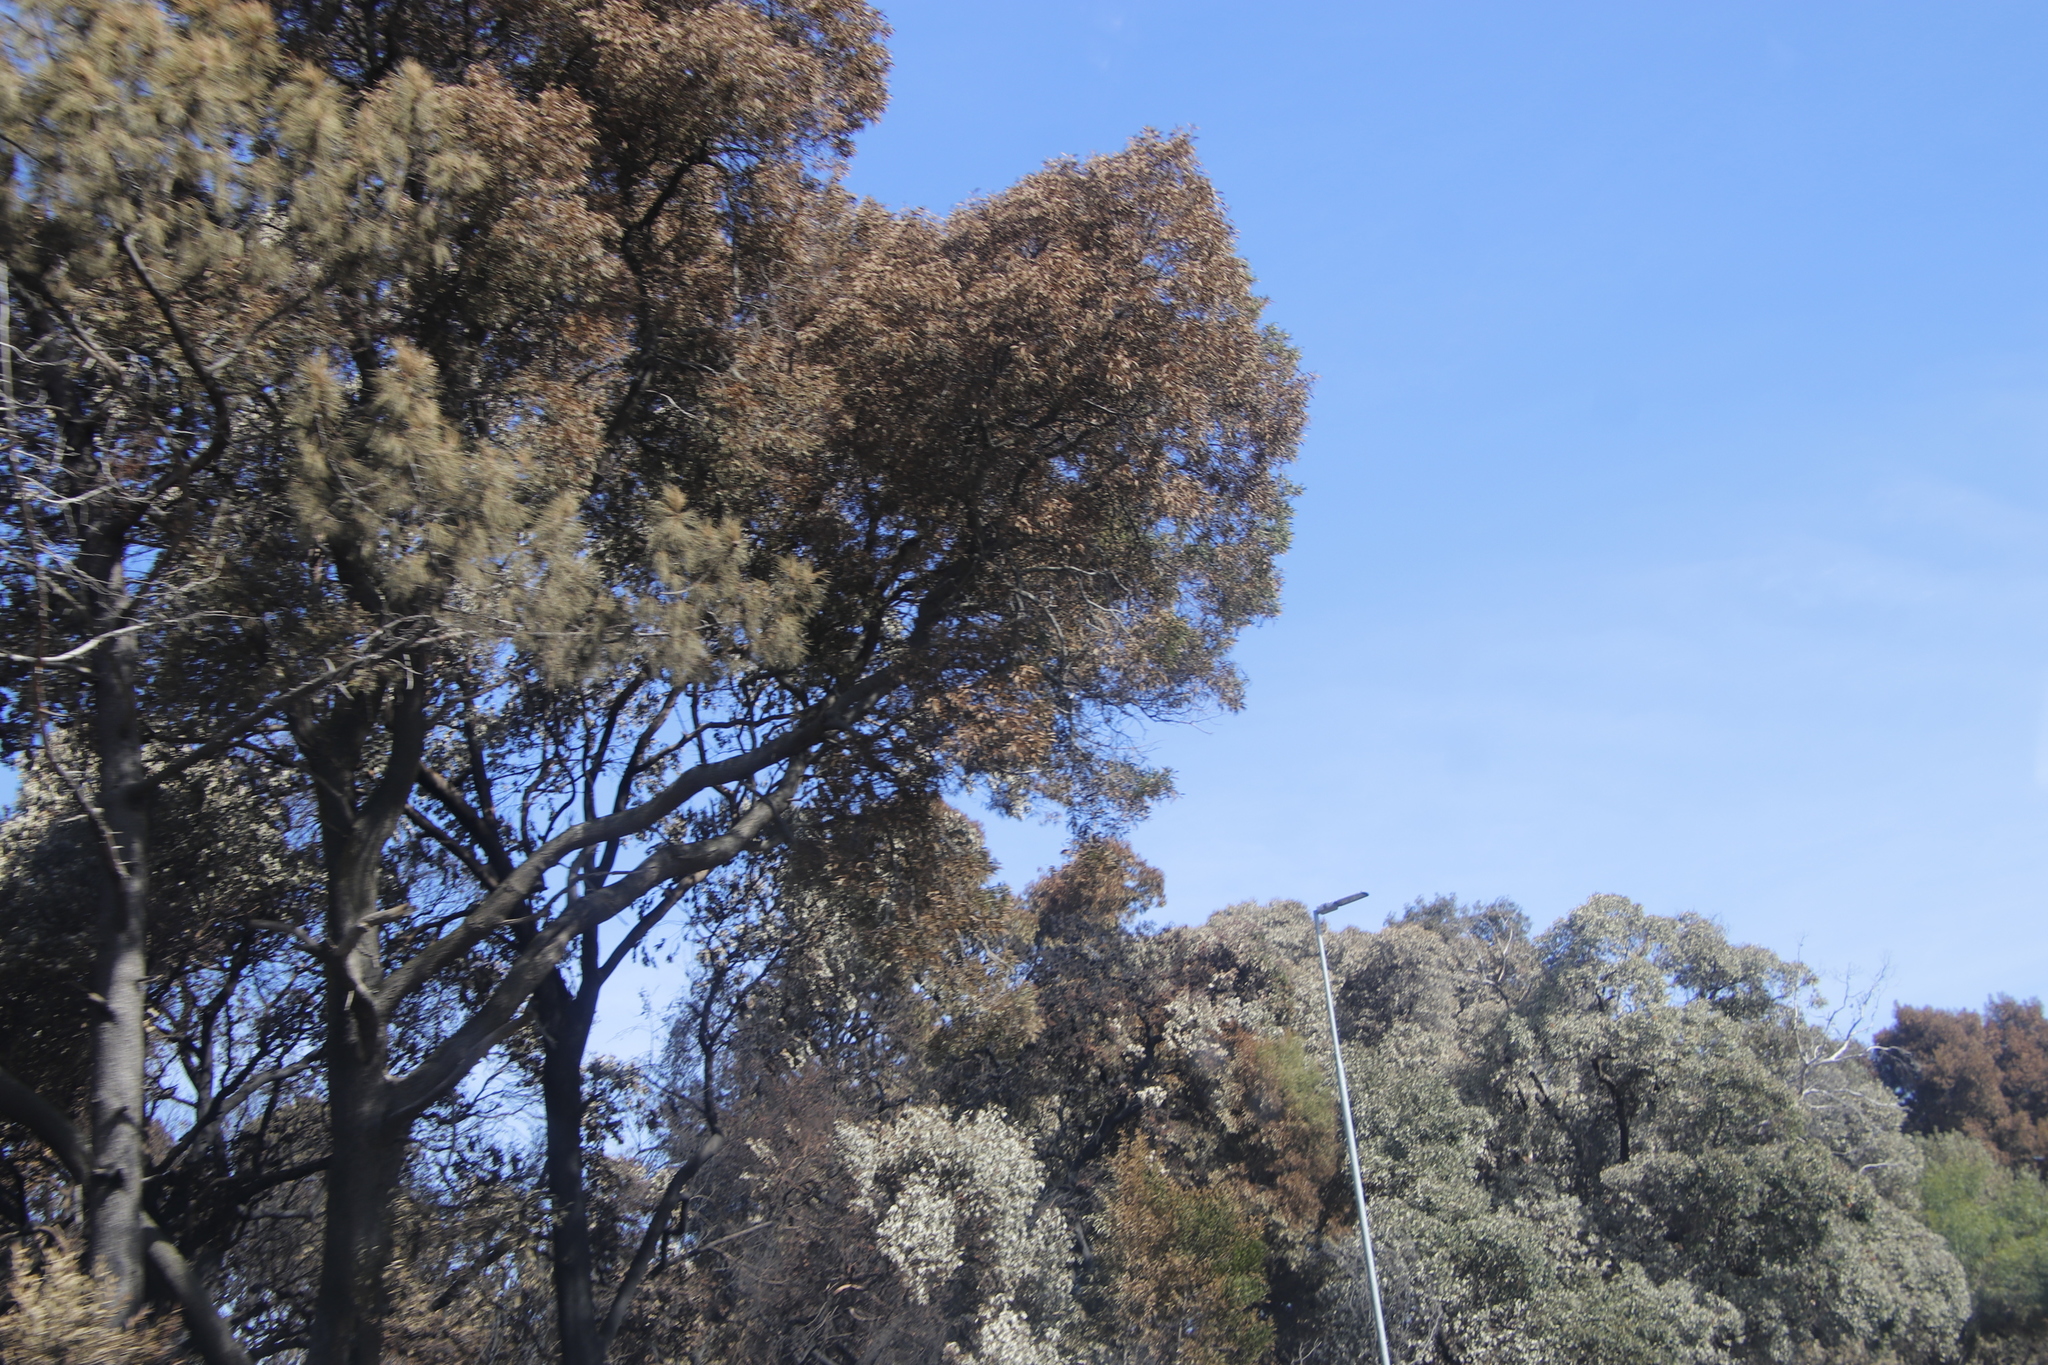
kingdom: Plantae
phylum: Tracheophyta
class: Magnoliopsida
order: Fabales
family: Fabaceae
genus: Acacia
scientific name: Acacia melanoxylon
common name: Blackwood
